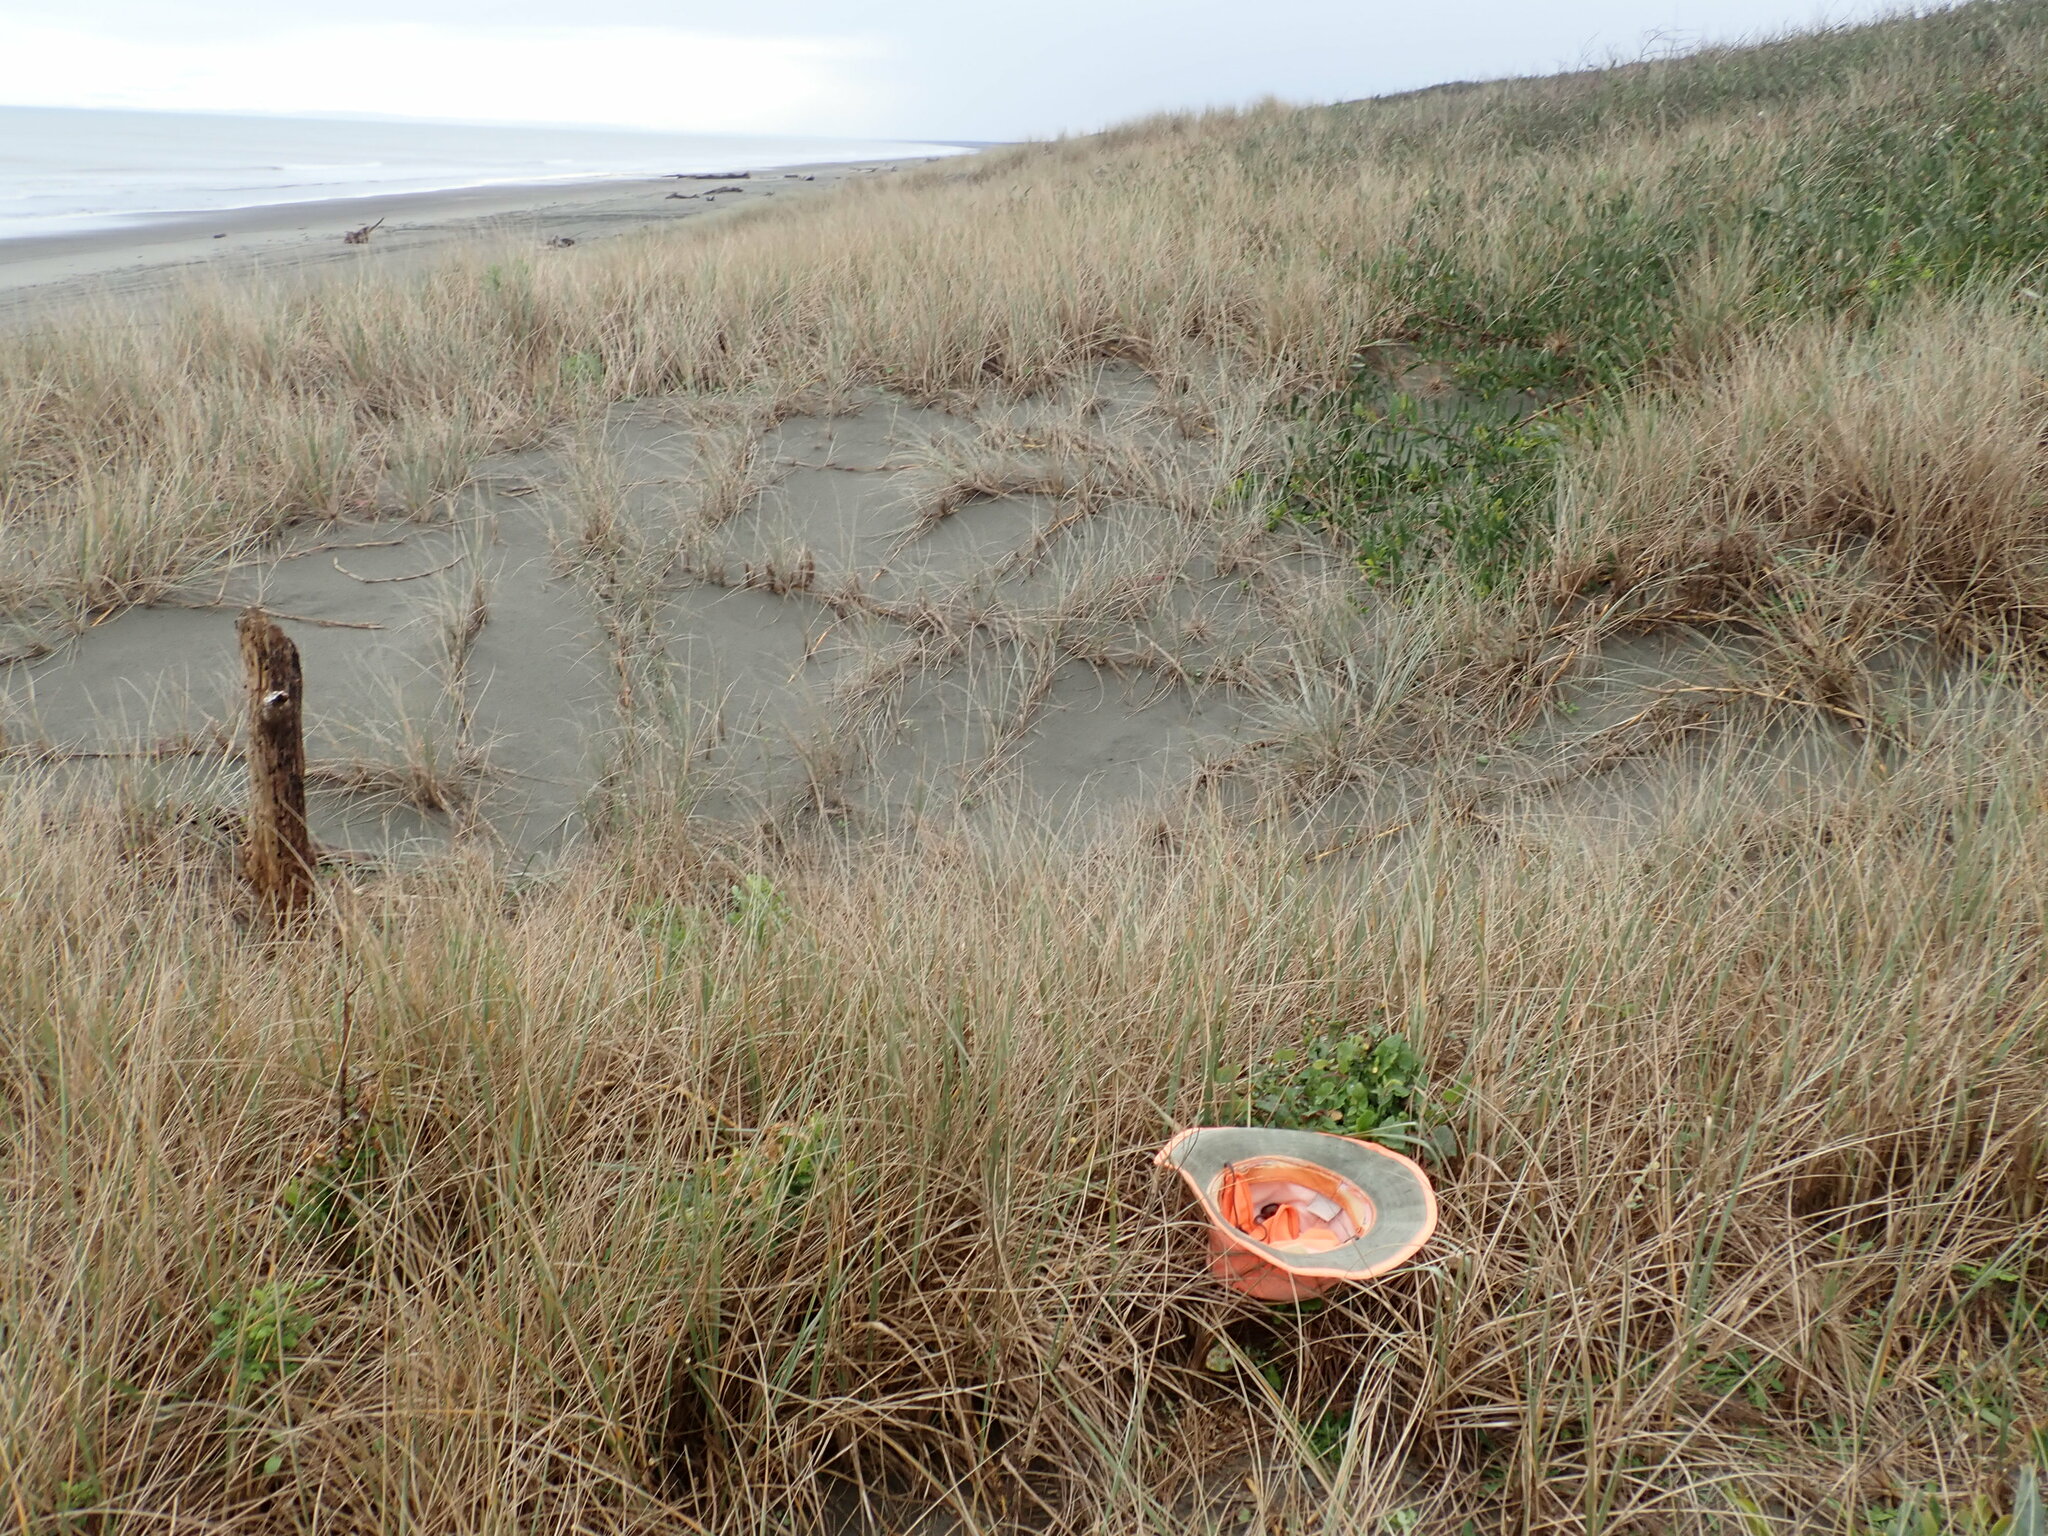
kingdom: Plantae
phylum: Tracheophyta
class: Magnoliopsida
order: Asterales
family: Asteraceae
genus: Sonchus
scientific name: Sonchus oleraceus
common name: Common sowthistle
